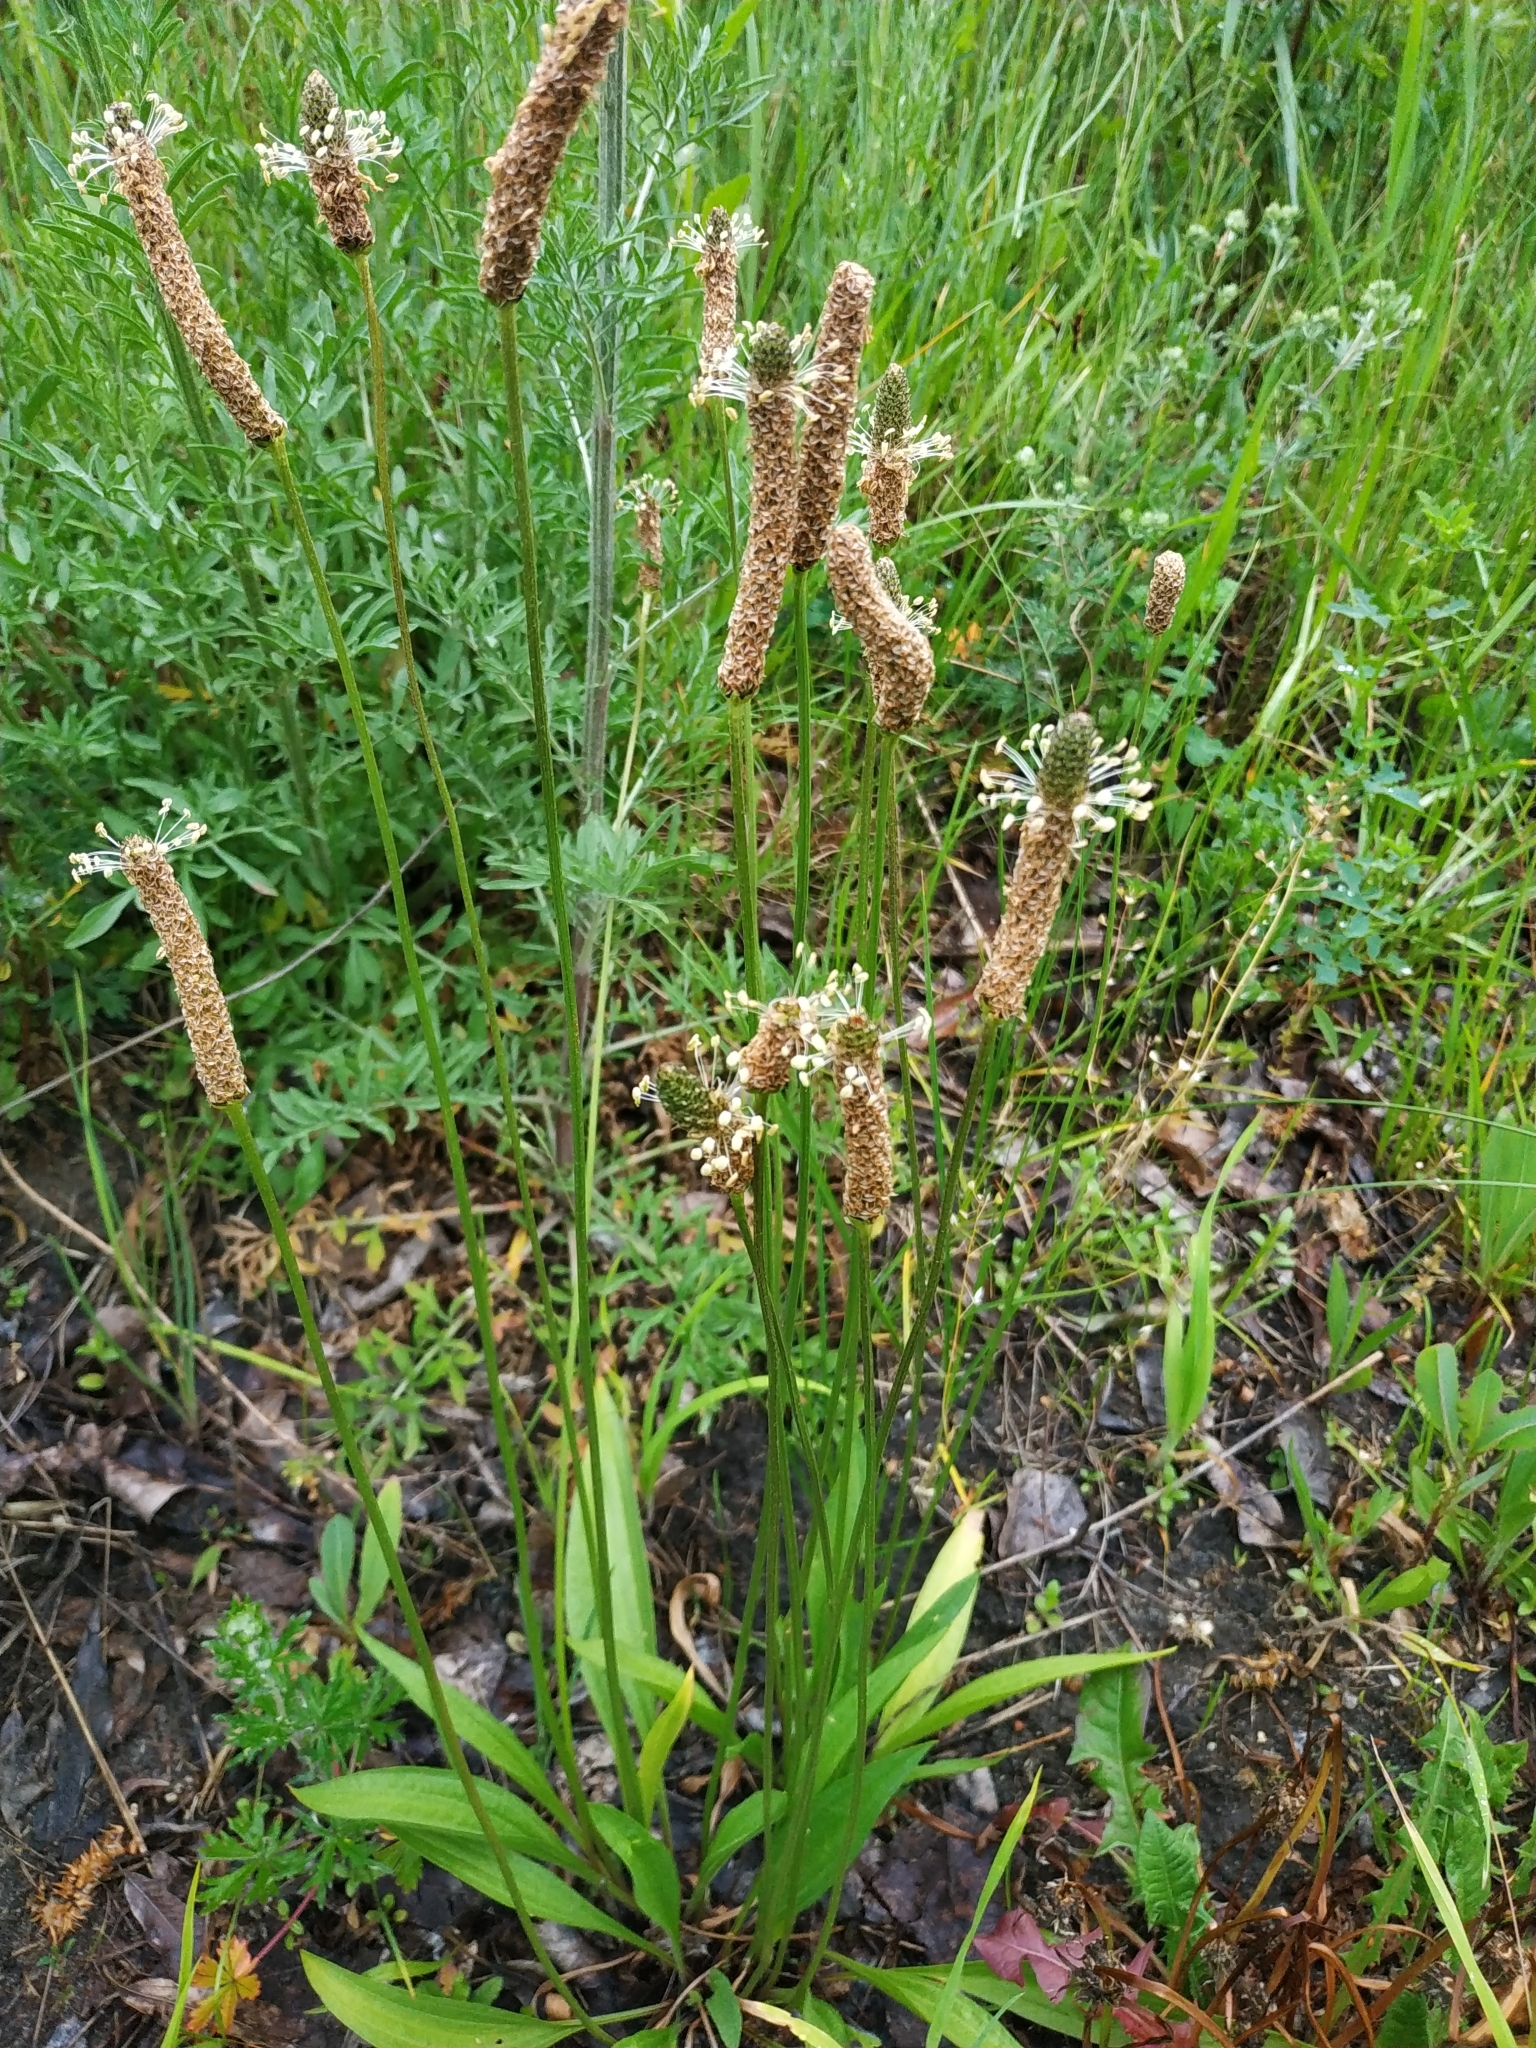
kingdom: Plantae
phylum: Tracheophyta
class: Magnoliopsida
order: Lamiales
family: Plantaginaceae
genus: Plantago
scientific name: Plantago lanceolata
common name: Ribwort plantain
